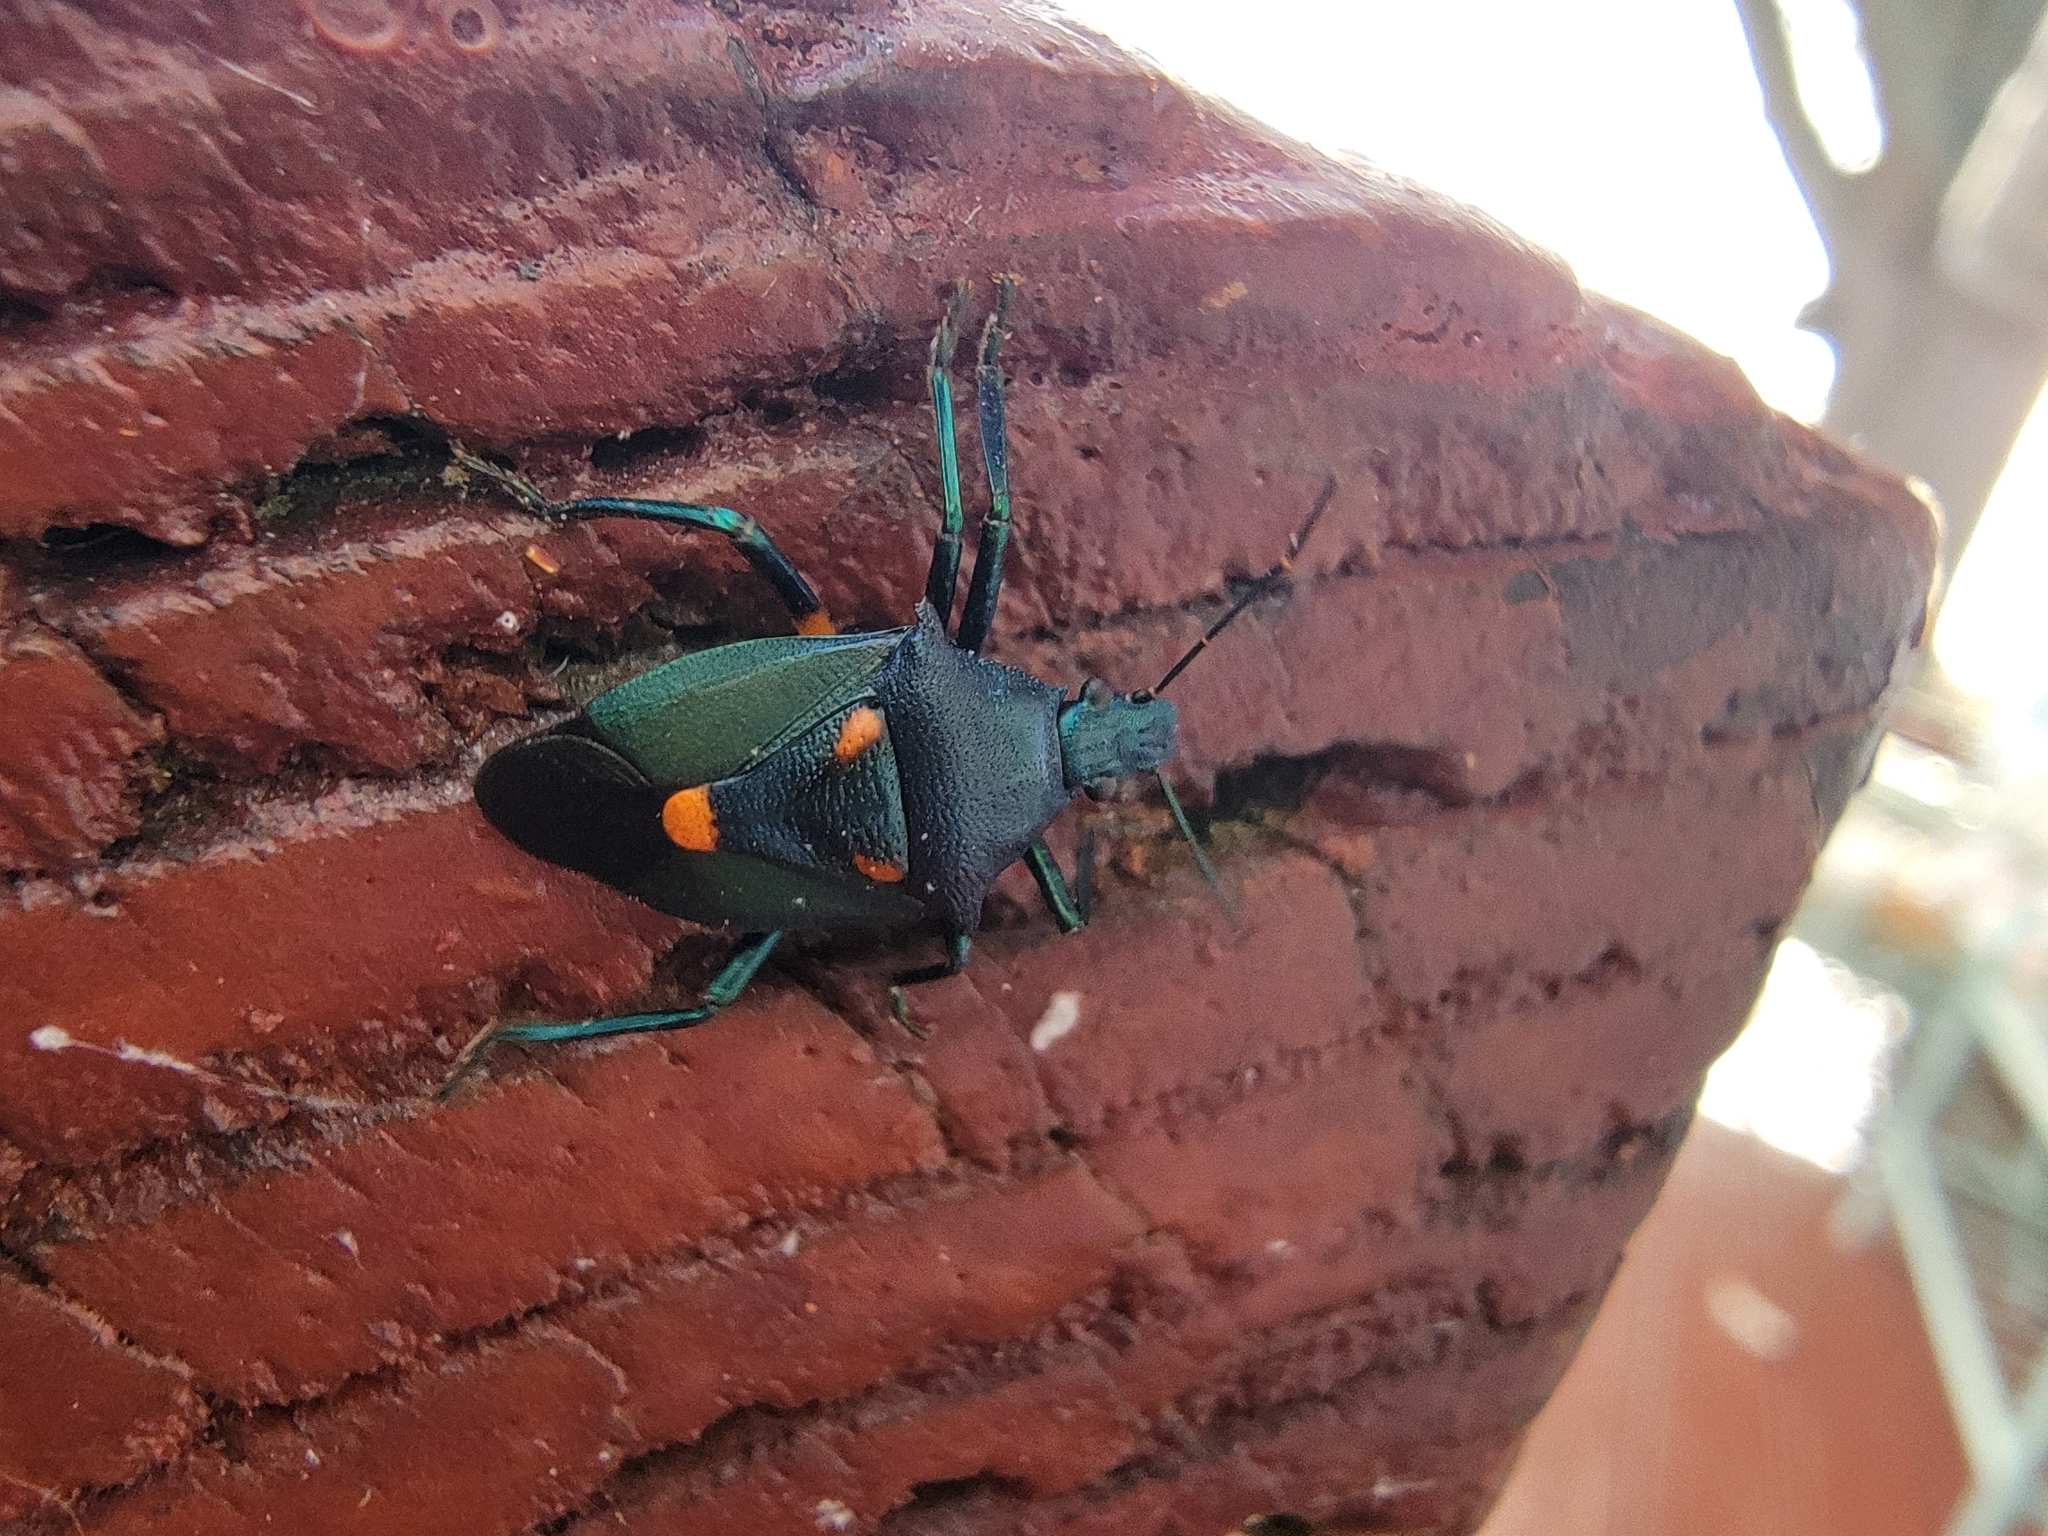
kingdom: Animalia
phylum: Arthropoda
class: Insecta
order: Hemiptera
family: Pentatomidae
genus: Euthyrhynchus
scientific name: Euthyrhynchus floridanus
